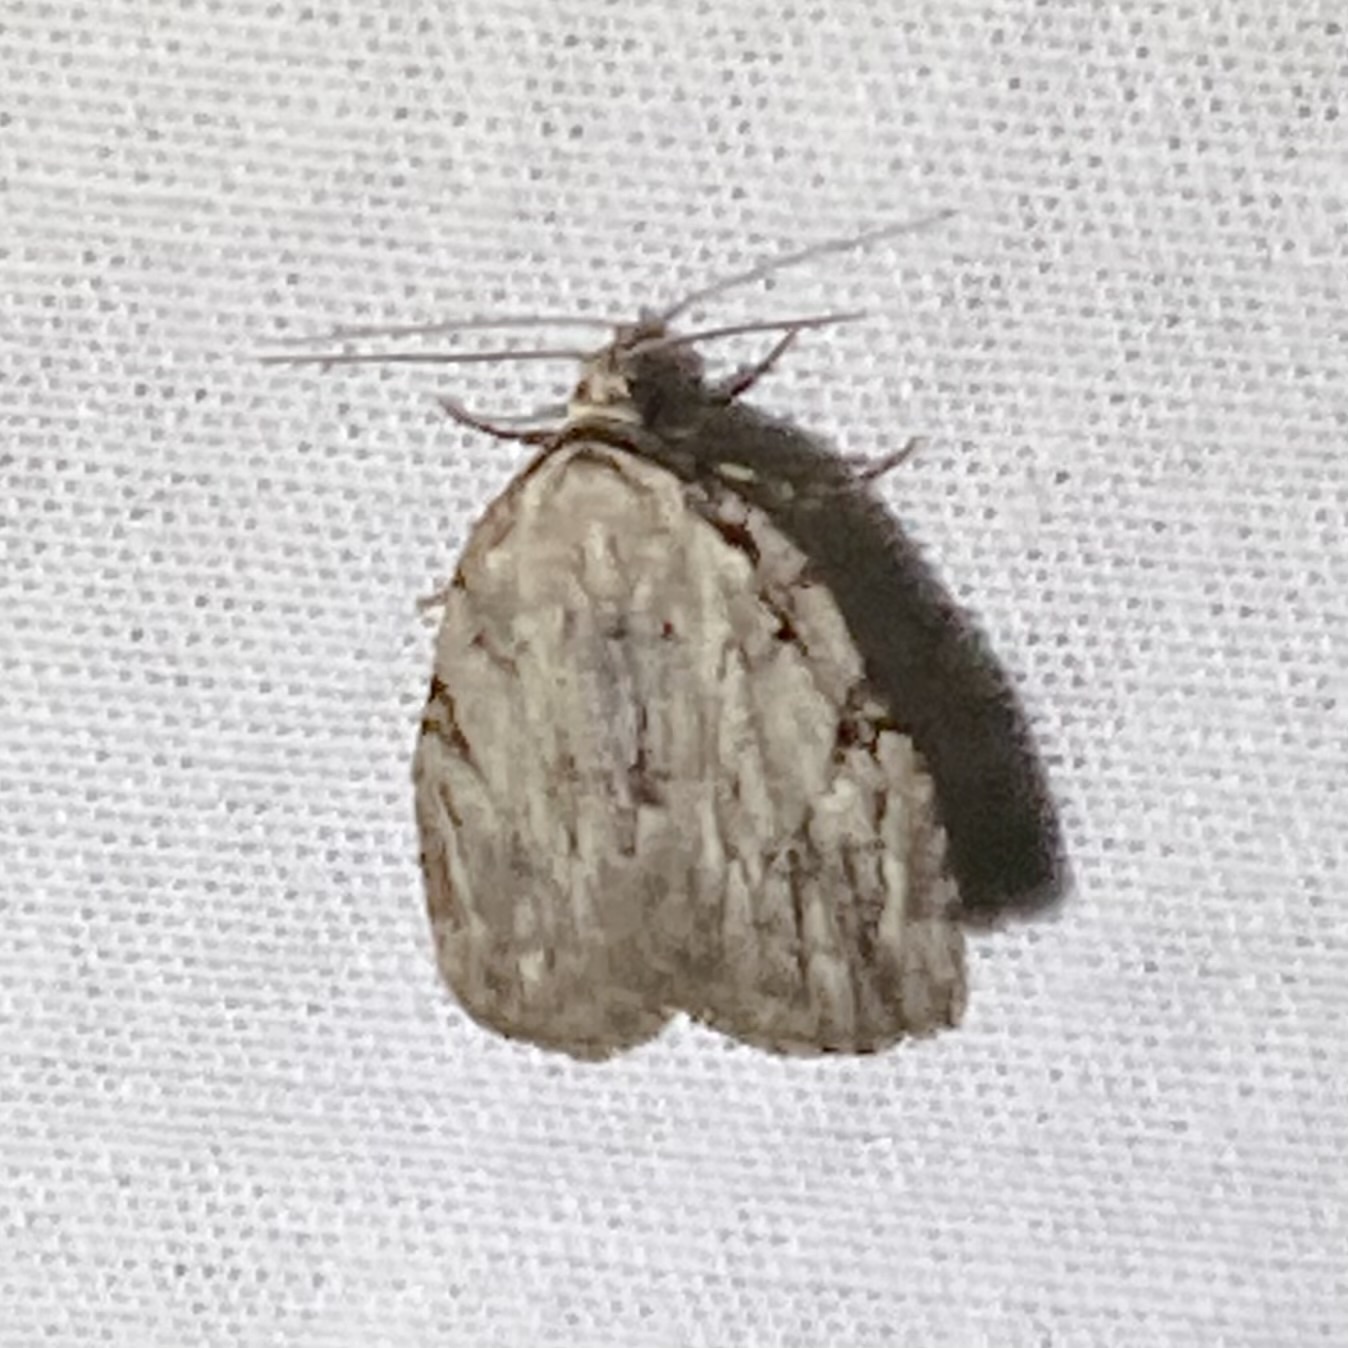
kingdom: Animalia
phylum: Arthropoda
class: Insecta
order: Lepidoptera
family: Noctuidae
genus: Balsa
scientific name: Balsa tristrigella
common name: Three-lined balsa moth
